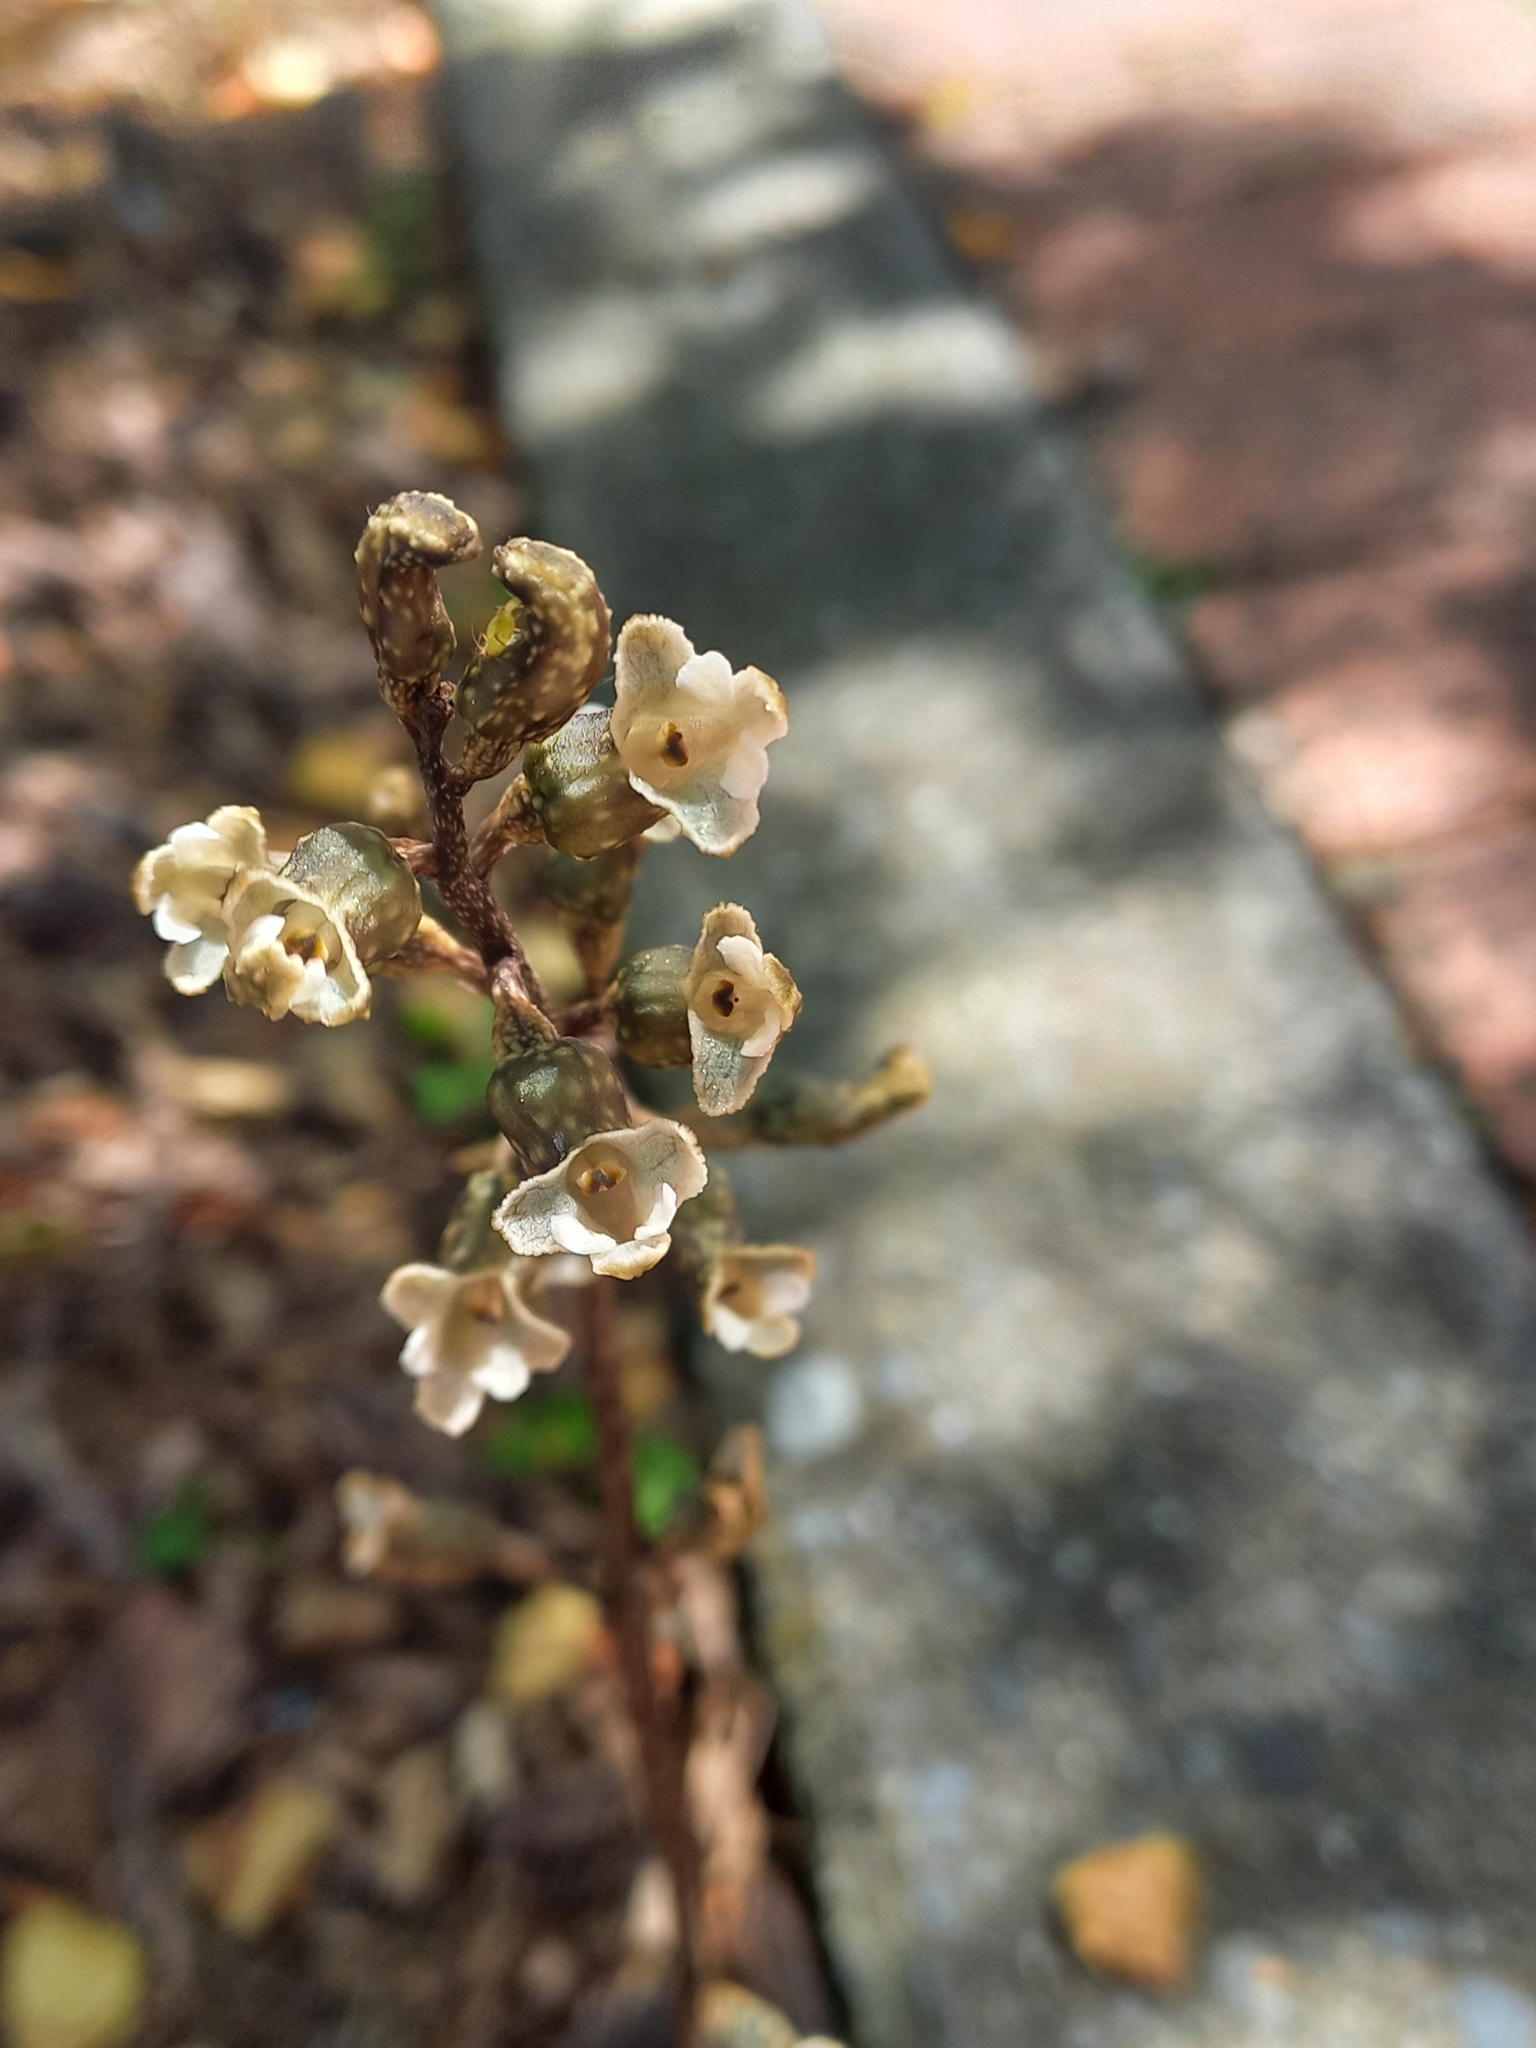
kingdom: Plantae
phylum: Tracheophyta
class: Liliopsida
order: Asparagales
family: Orchidaceae
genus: Gastrodia
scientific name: Gastrodia cunninghamii
